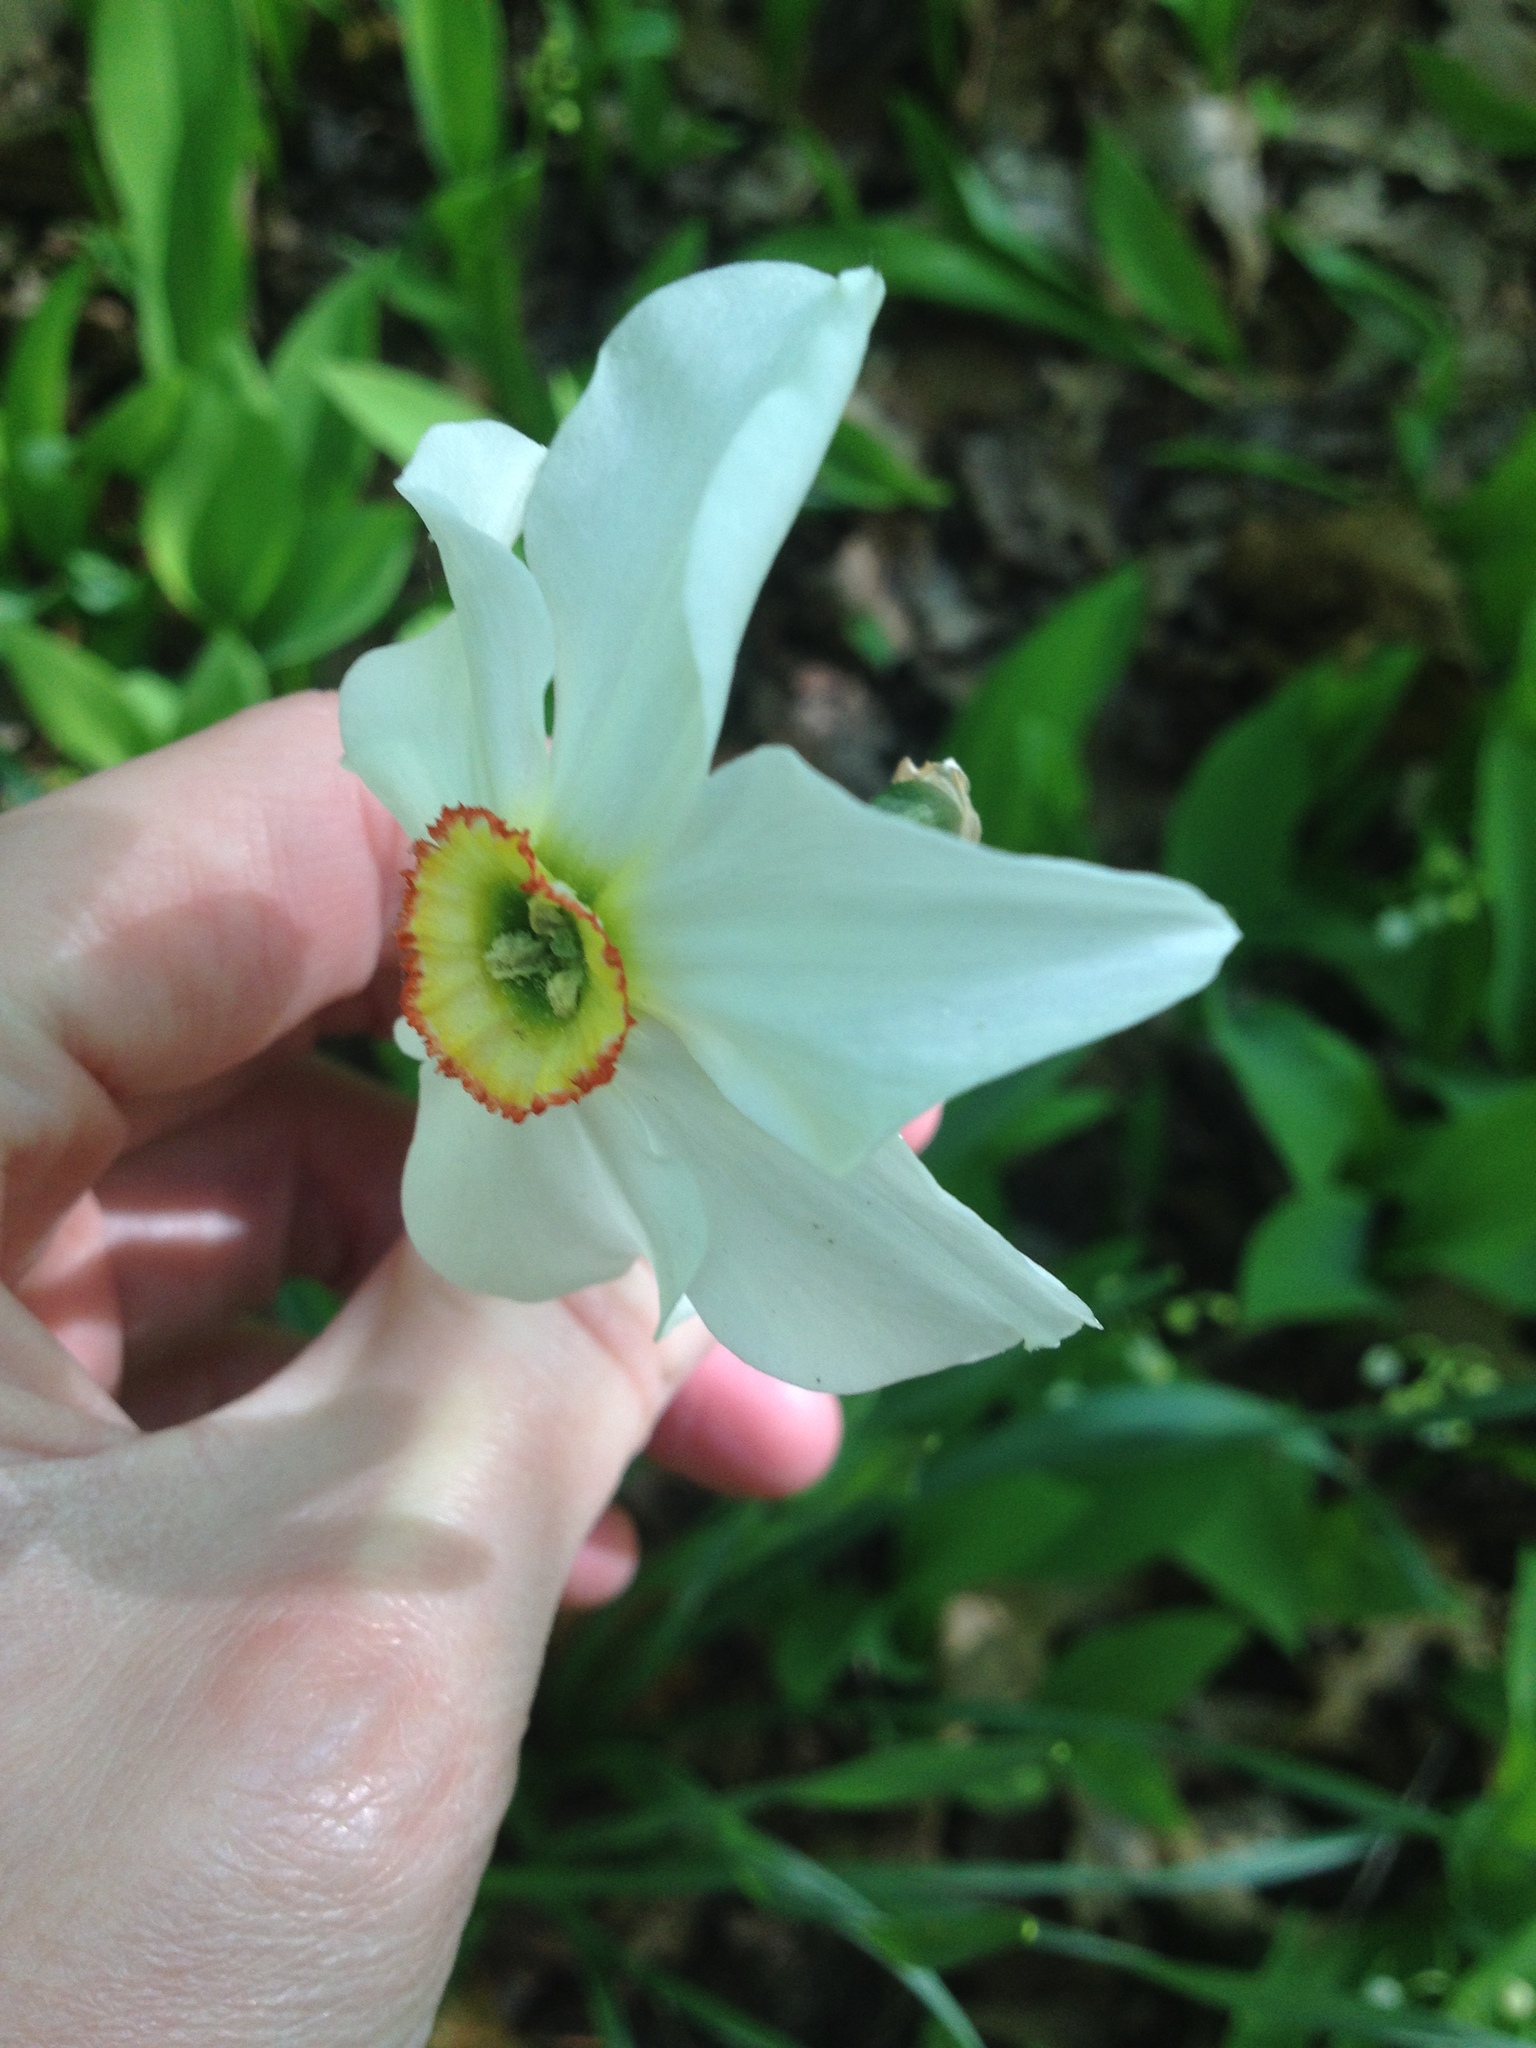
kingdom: Plantae
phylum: Tracheophyta
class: Liliopsida
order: Asparagales
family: Amaryllidaceae
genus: Narcissus
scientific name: Narcissus poeticus
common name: Pheasant's-eye daffodil
